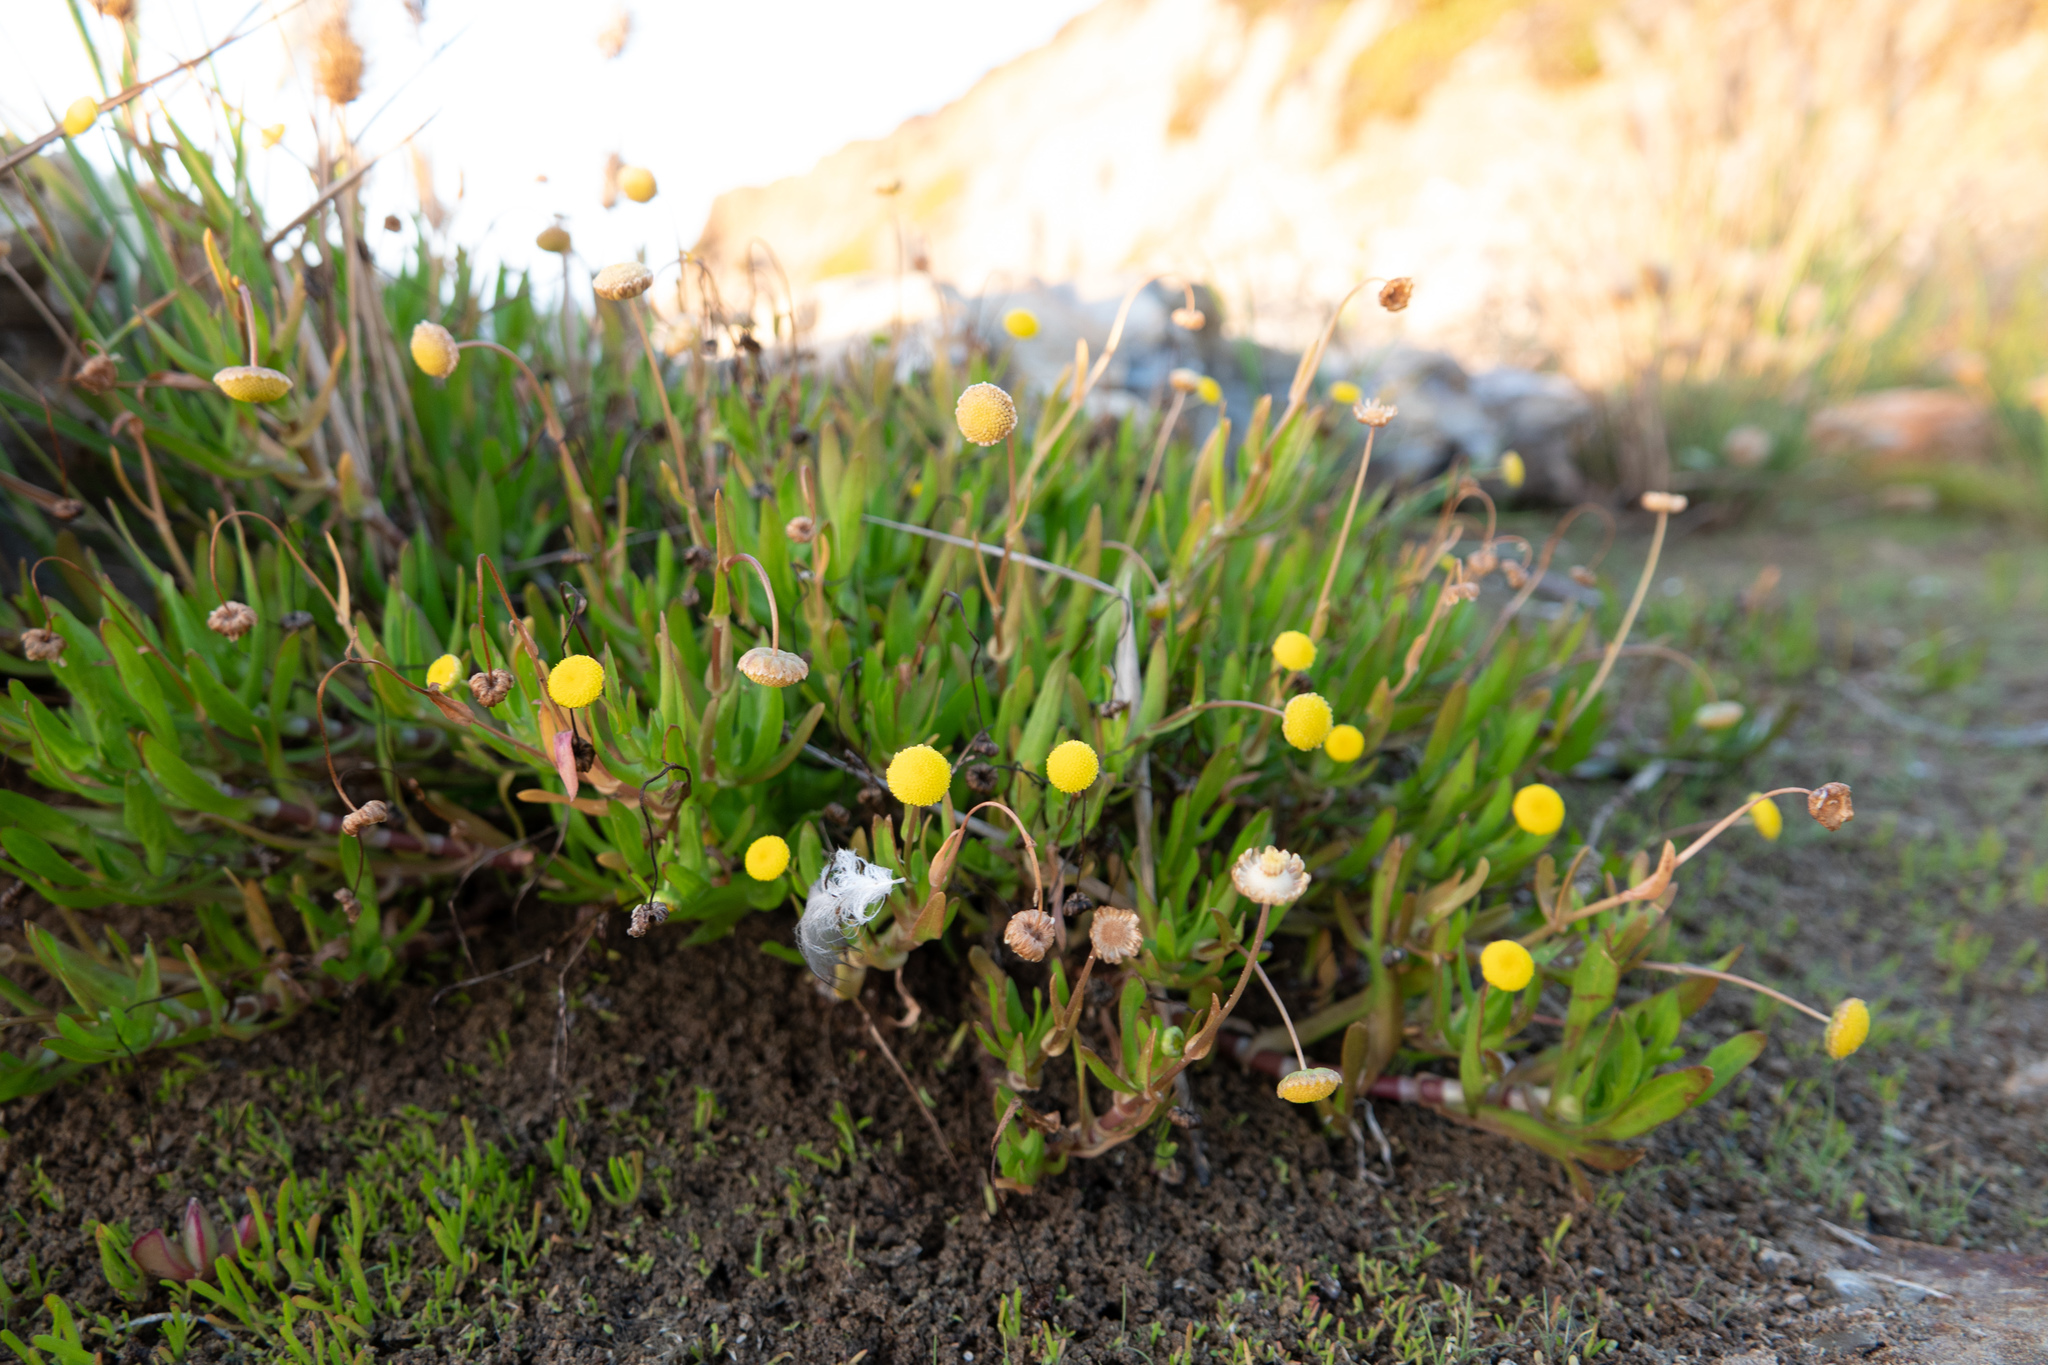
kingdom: Plantae
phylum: Tracheophyta
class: Magnoliopsida
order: Asterales
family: Asteraceae
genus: Cotula
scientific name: Cotula coronopifolia
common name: Buttonweed
